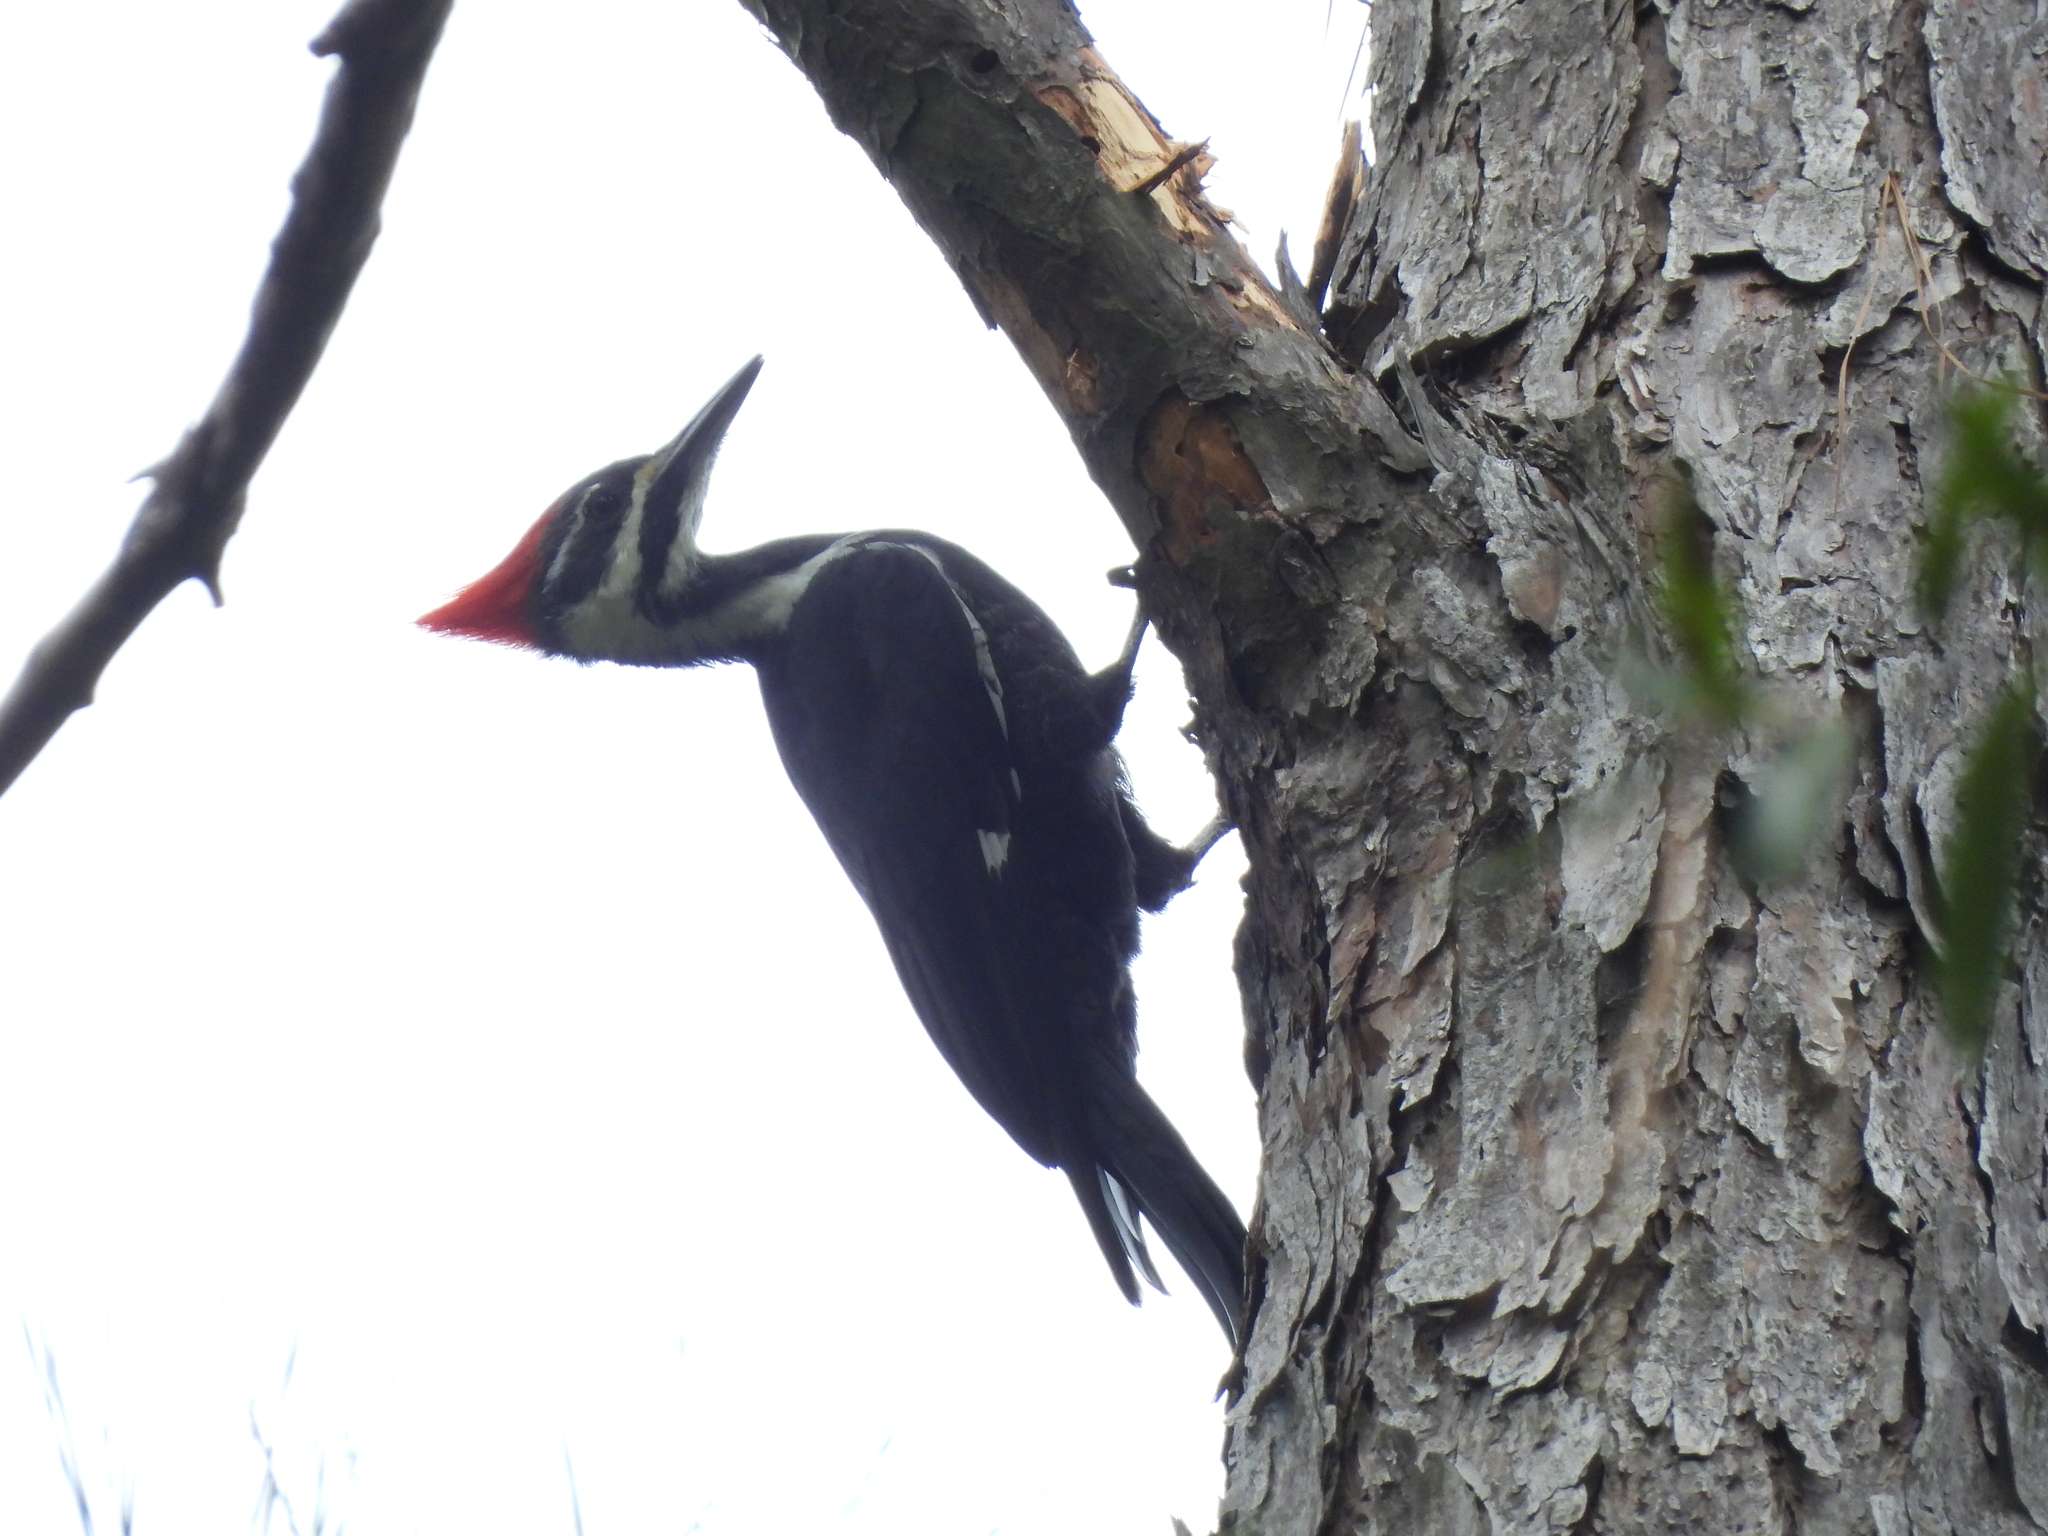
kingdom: Animalia
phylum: Chordata
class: Aves
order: Piciformes
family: Picidae
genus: Dryocopus
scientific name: Dryocopus pileatus
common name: Pileated woodpecker
